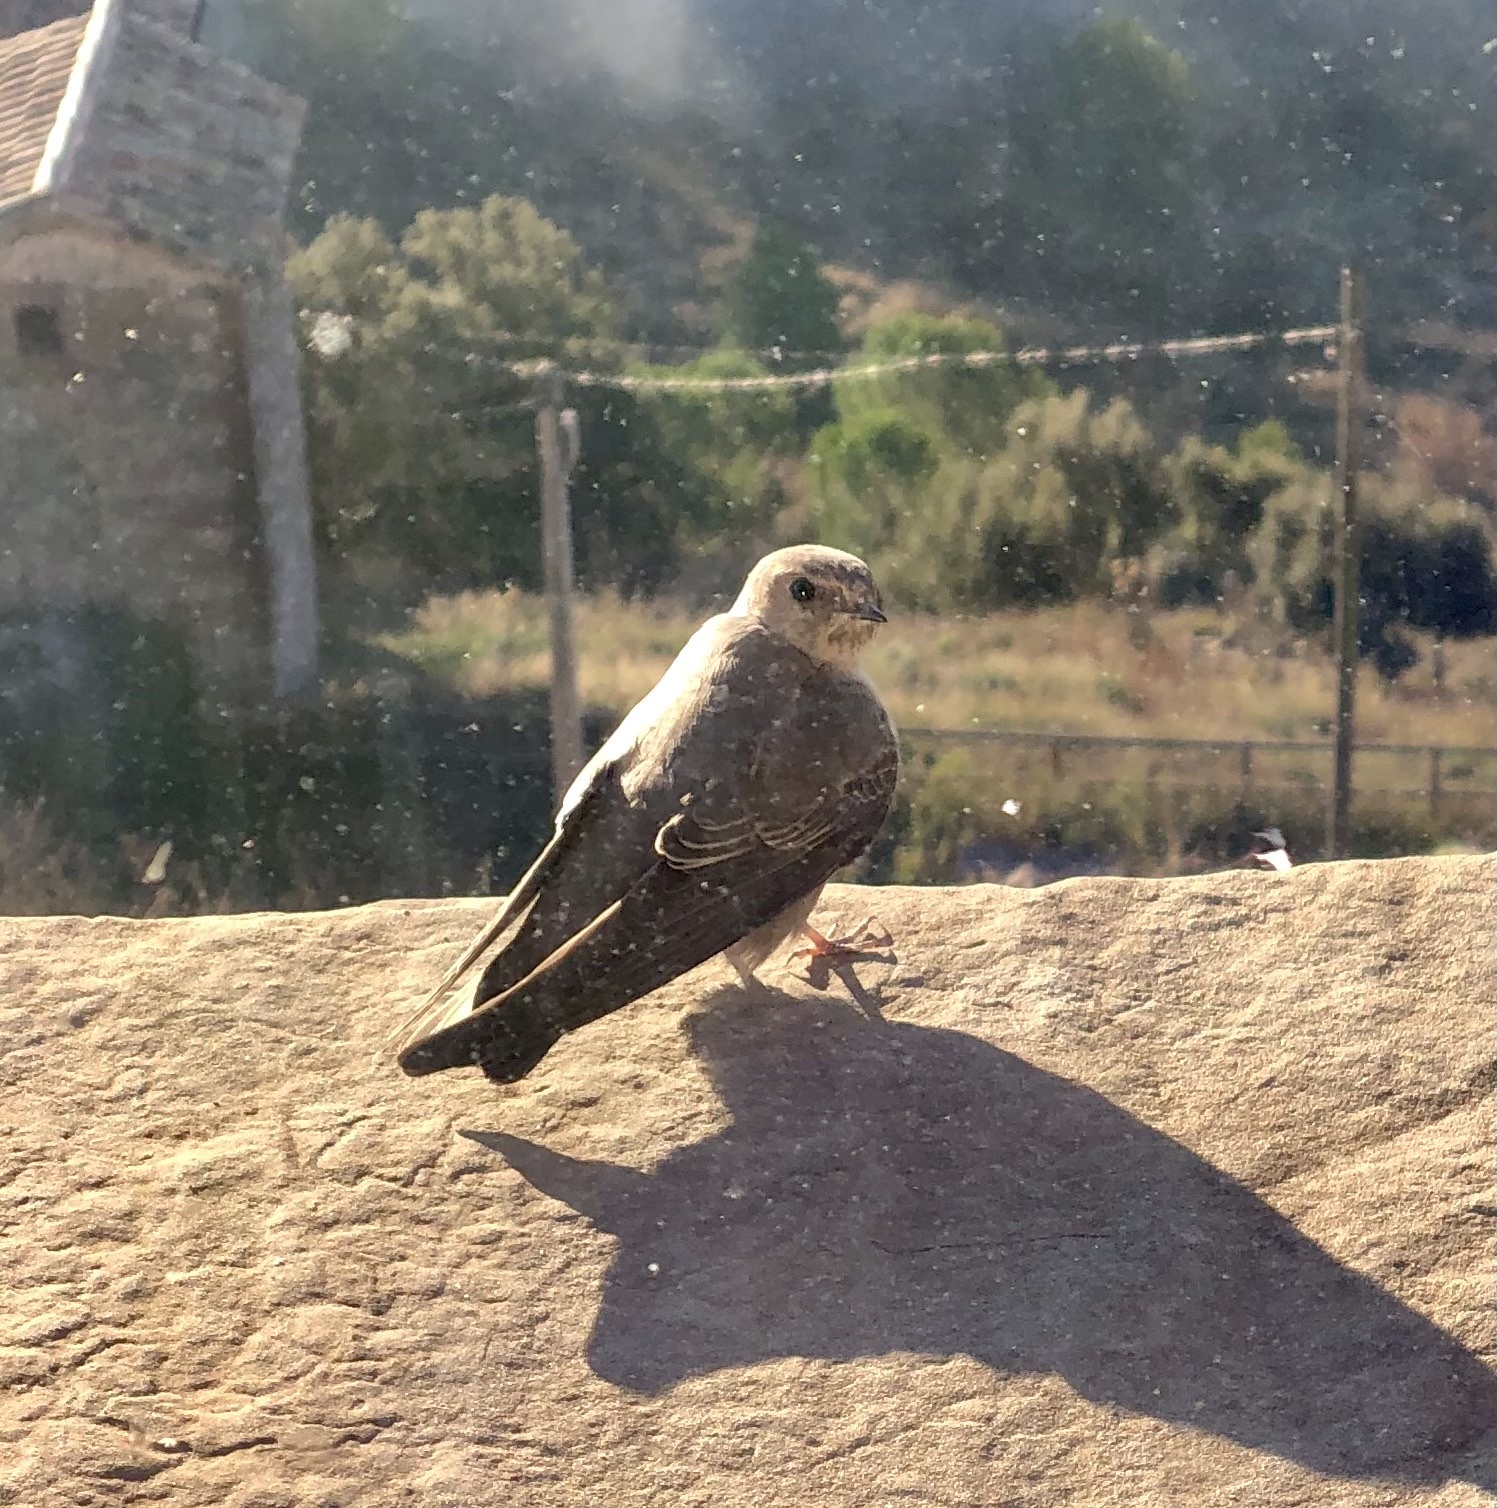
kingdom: Animalia
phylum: Chordata
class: Aves
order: Passeriformes
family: Hirundinidae
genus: Ptyonoprogne
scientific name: Ptyonoprogne rupestris
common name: Eurasian crag martin
